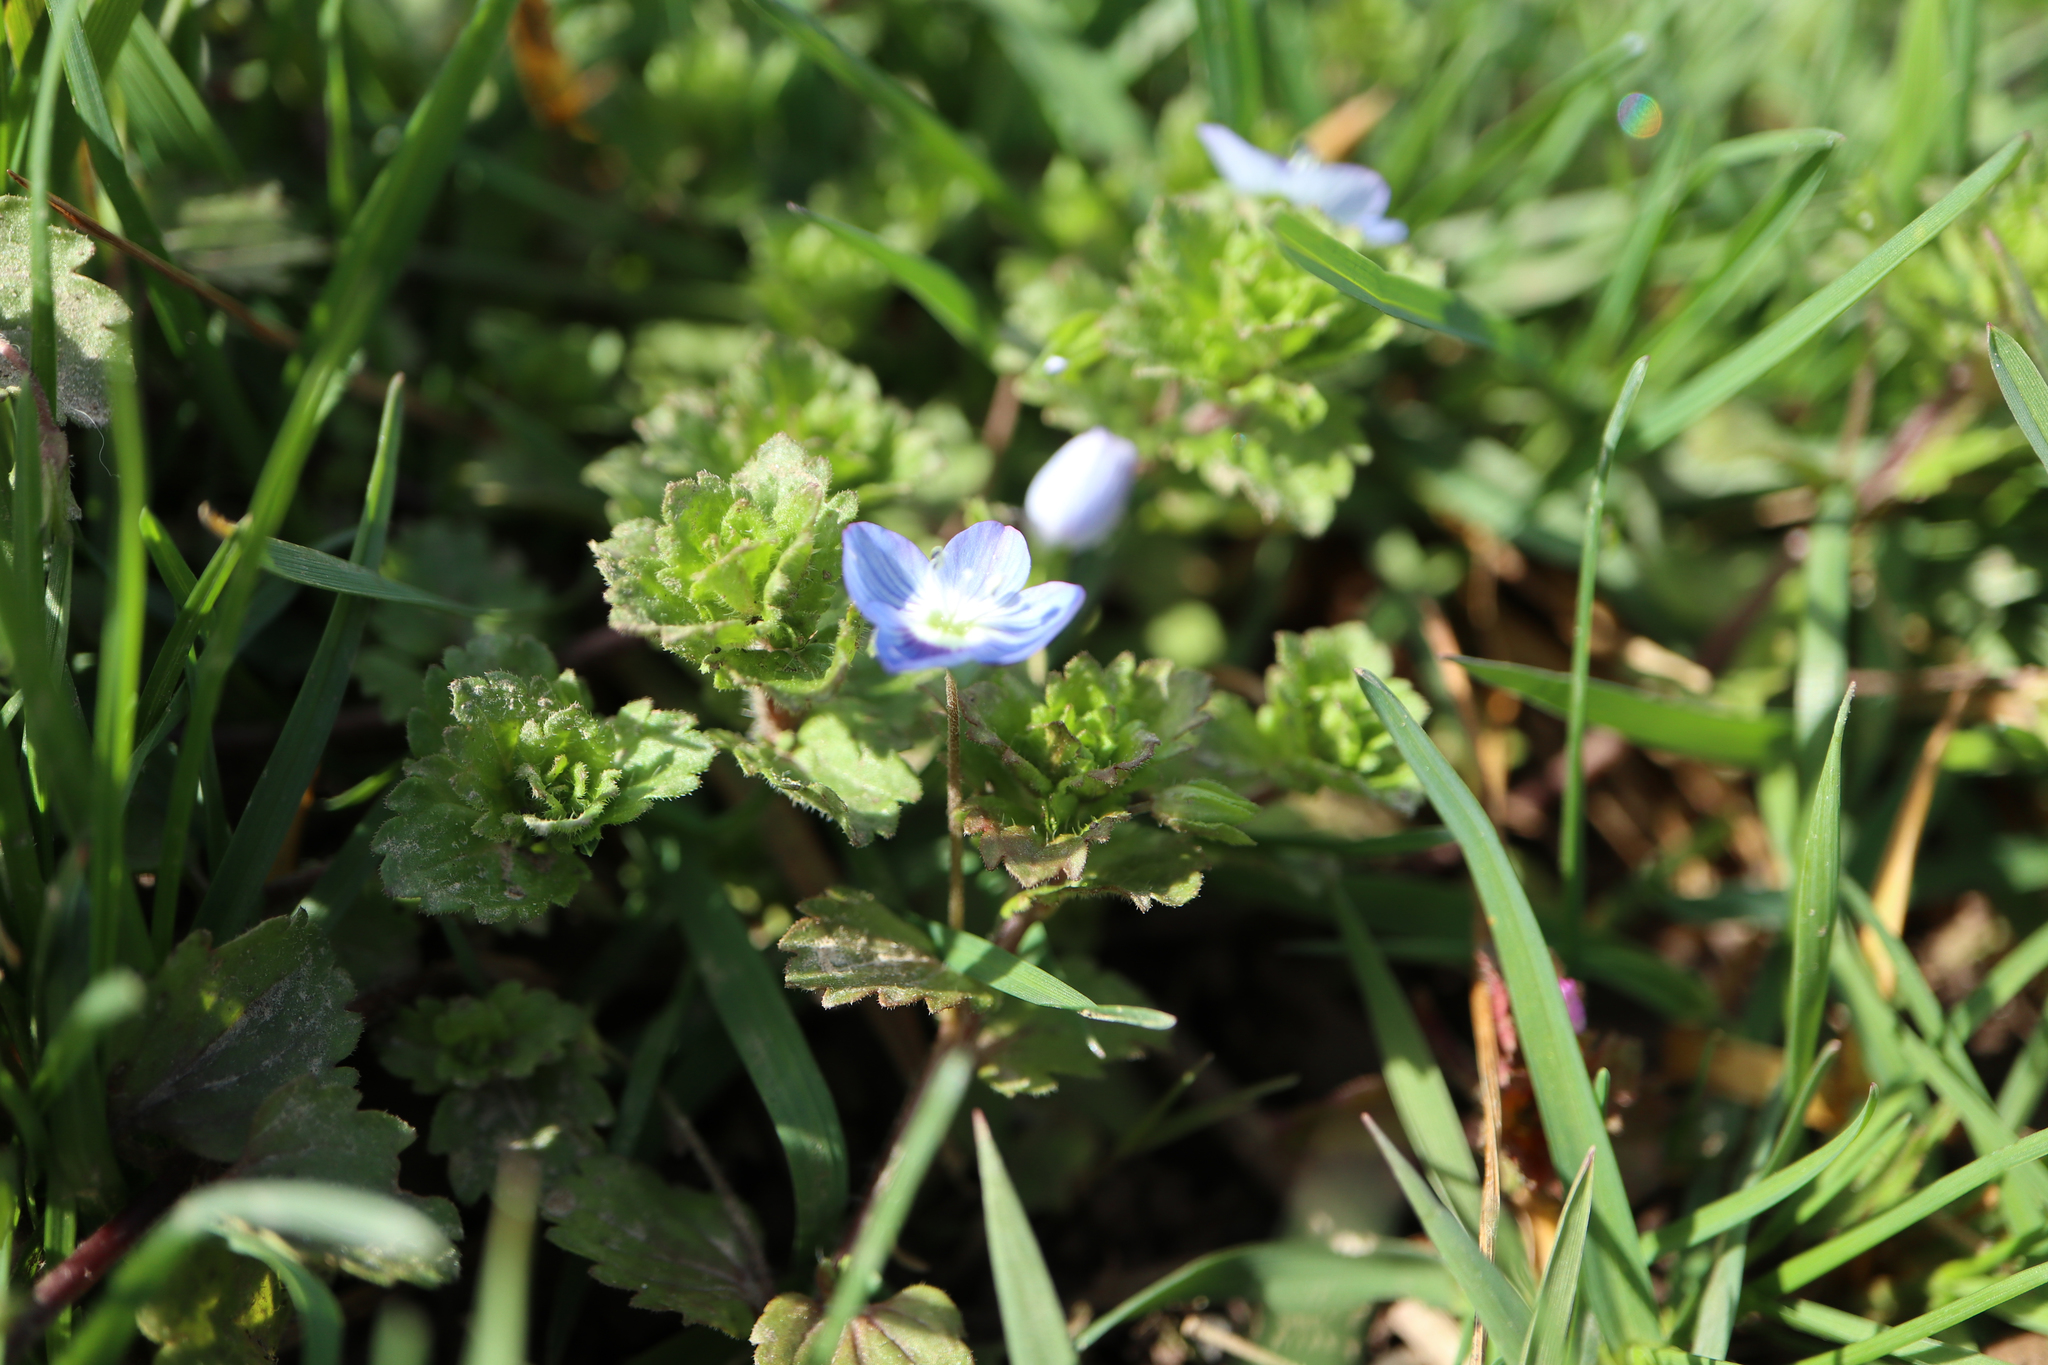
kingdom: Plantae
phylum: Tracheophyta
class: Magnoliopsida
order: Lamiales
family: Plantaginaceae
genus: Veronica
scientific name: Veronica persica
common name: Common field-speedwell
